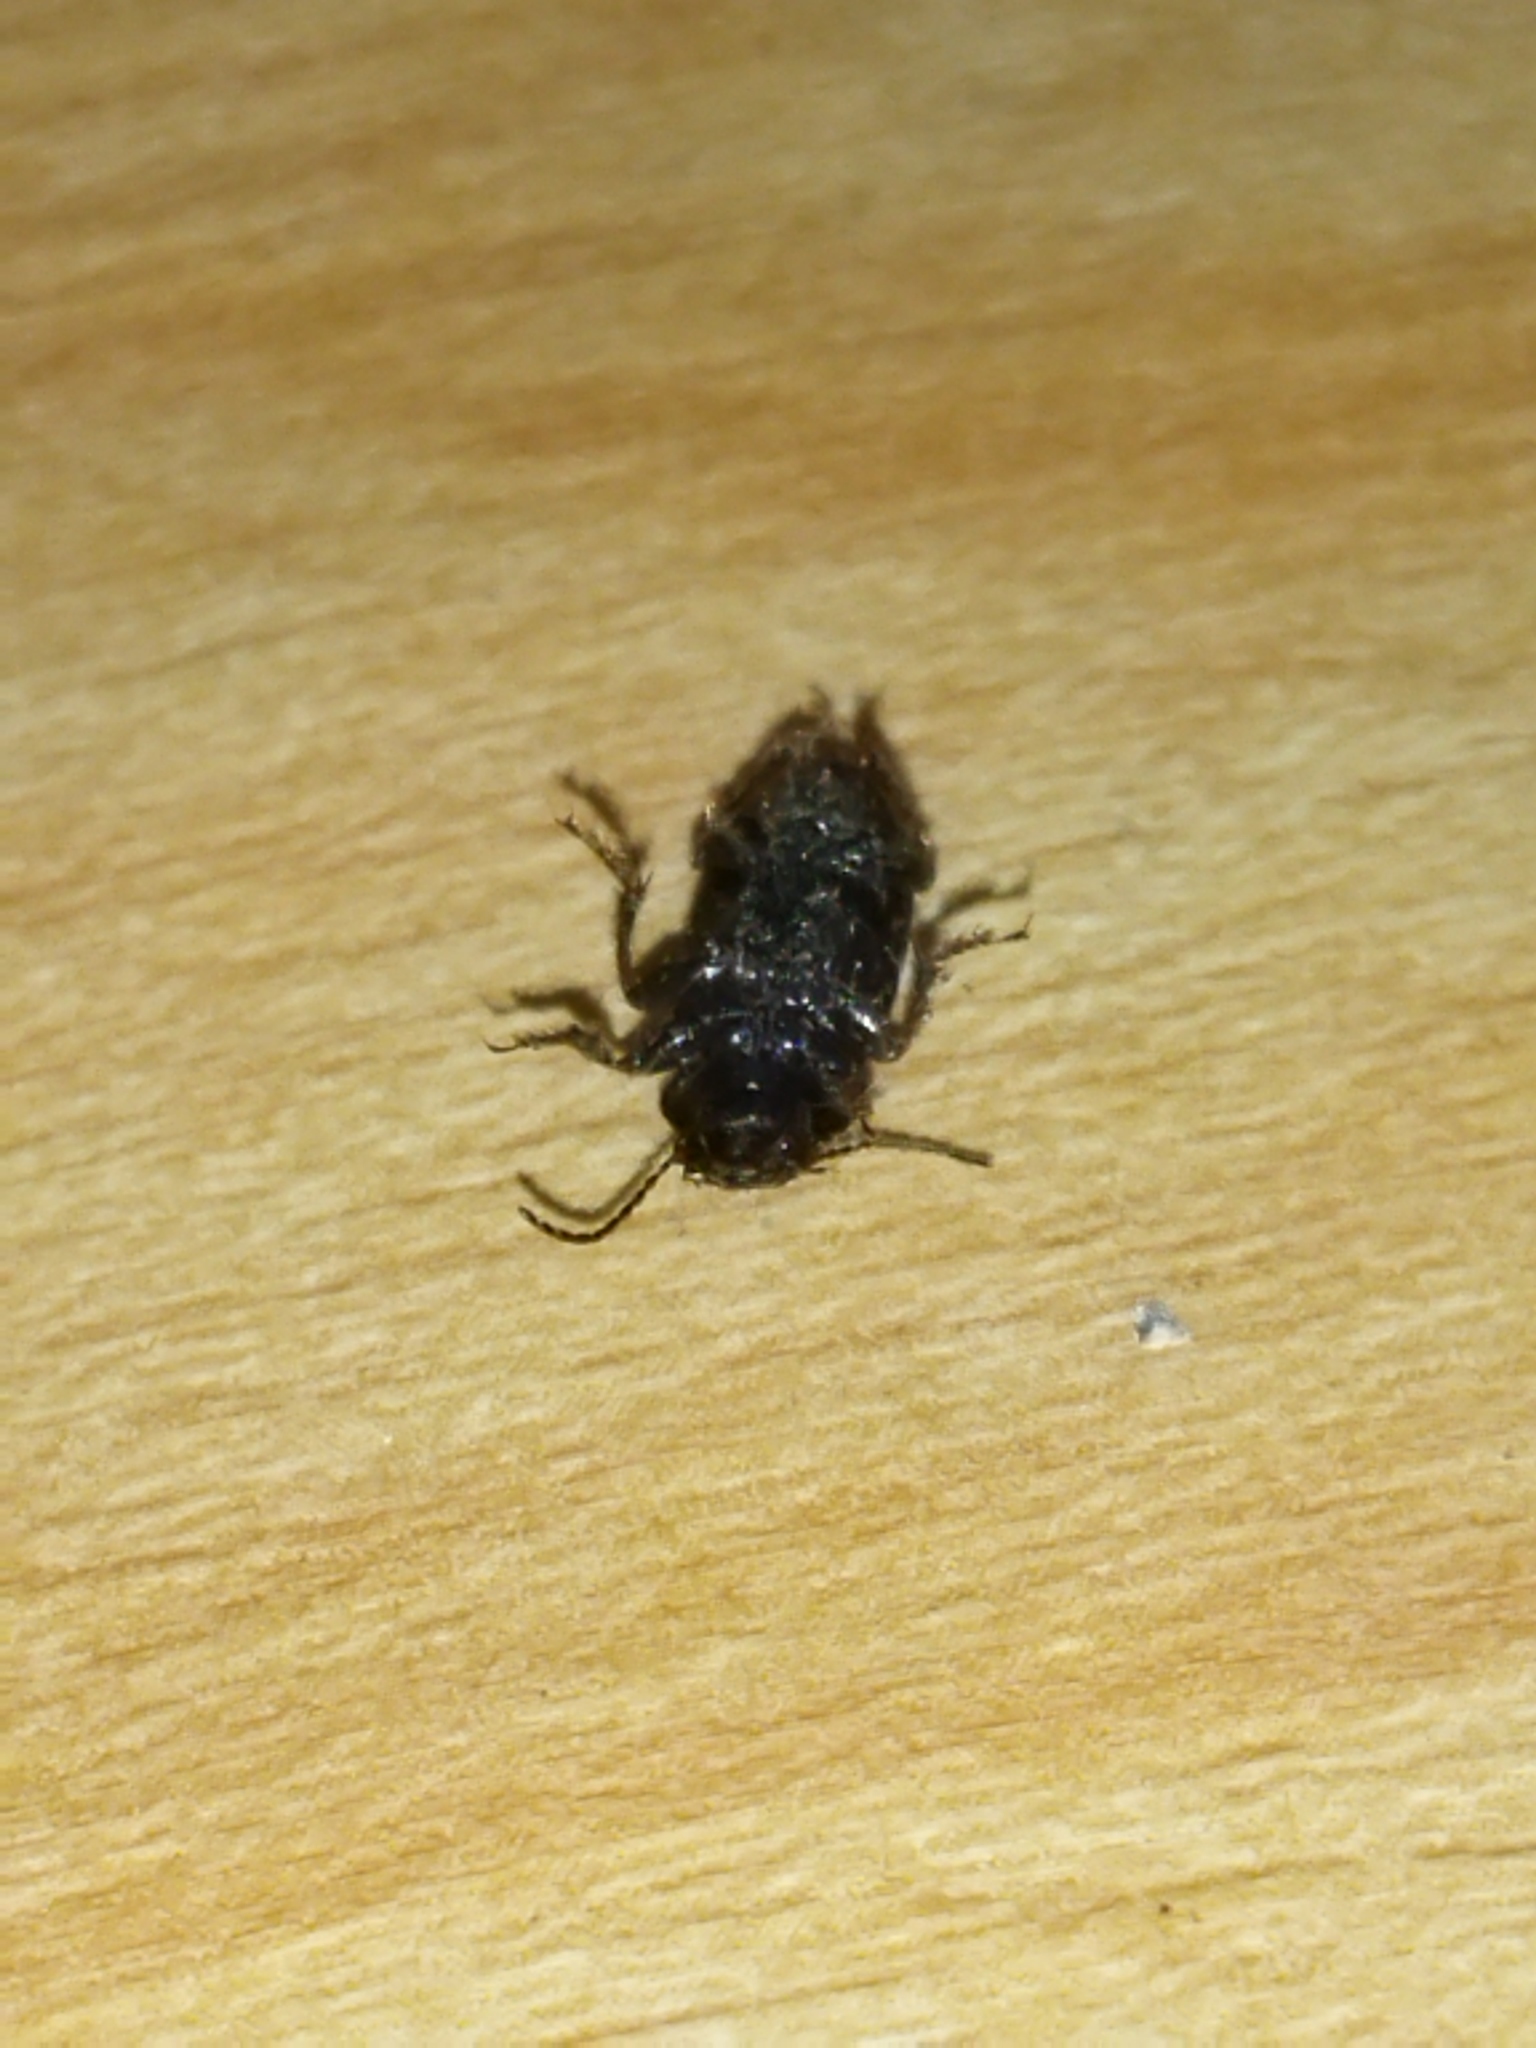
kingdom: Animalia
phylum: Arthropoda
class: Insecta
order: Coleoptera
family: Carabidae
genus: Harpalus
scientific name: Harpalus
